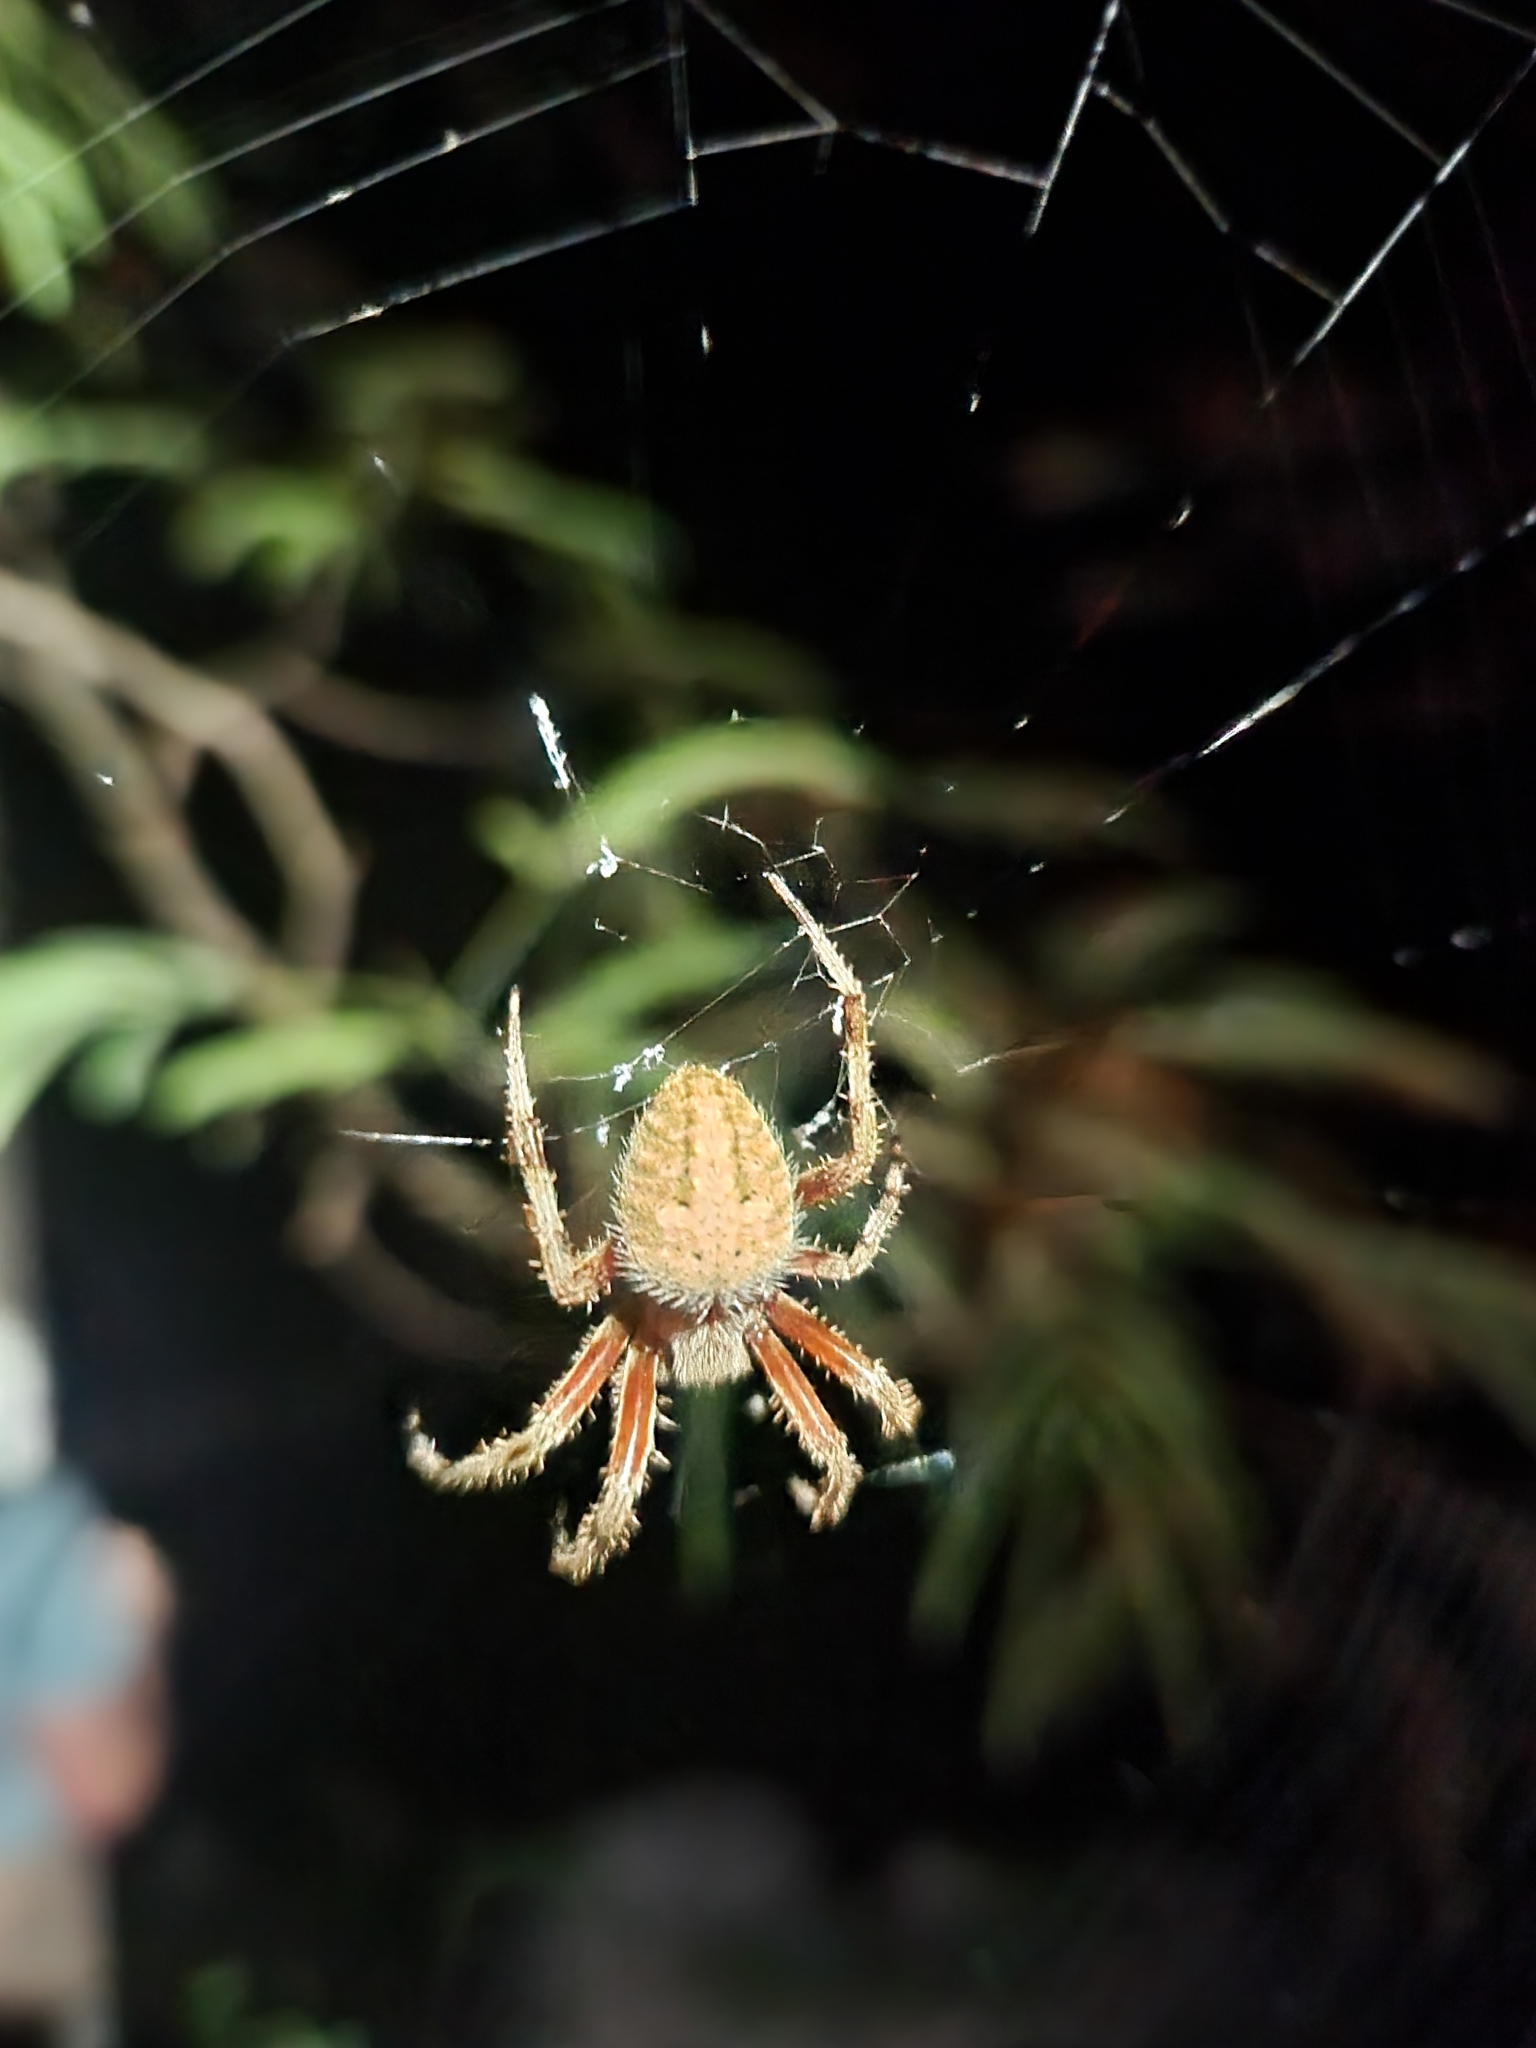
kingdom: Animalia
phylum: Arthropoda
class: Arachnida
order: Araneae
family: Araneidae
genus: Neoscona
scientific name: Neoscona crucifera
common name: Spotted orbweaver
